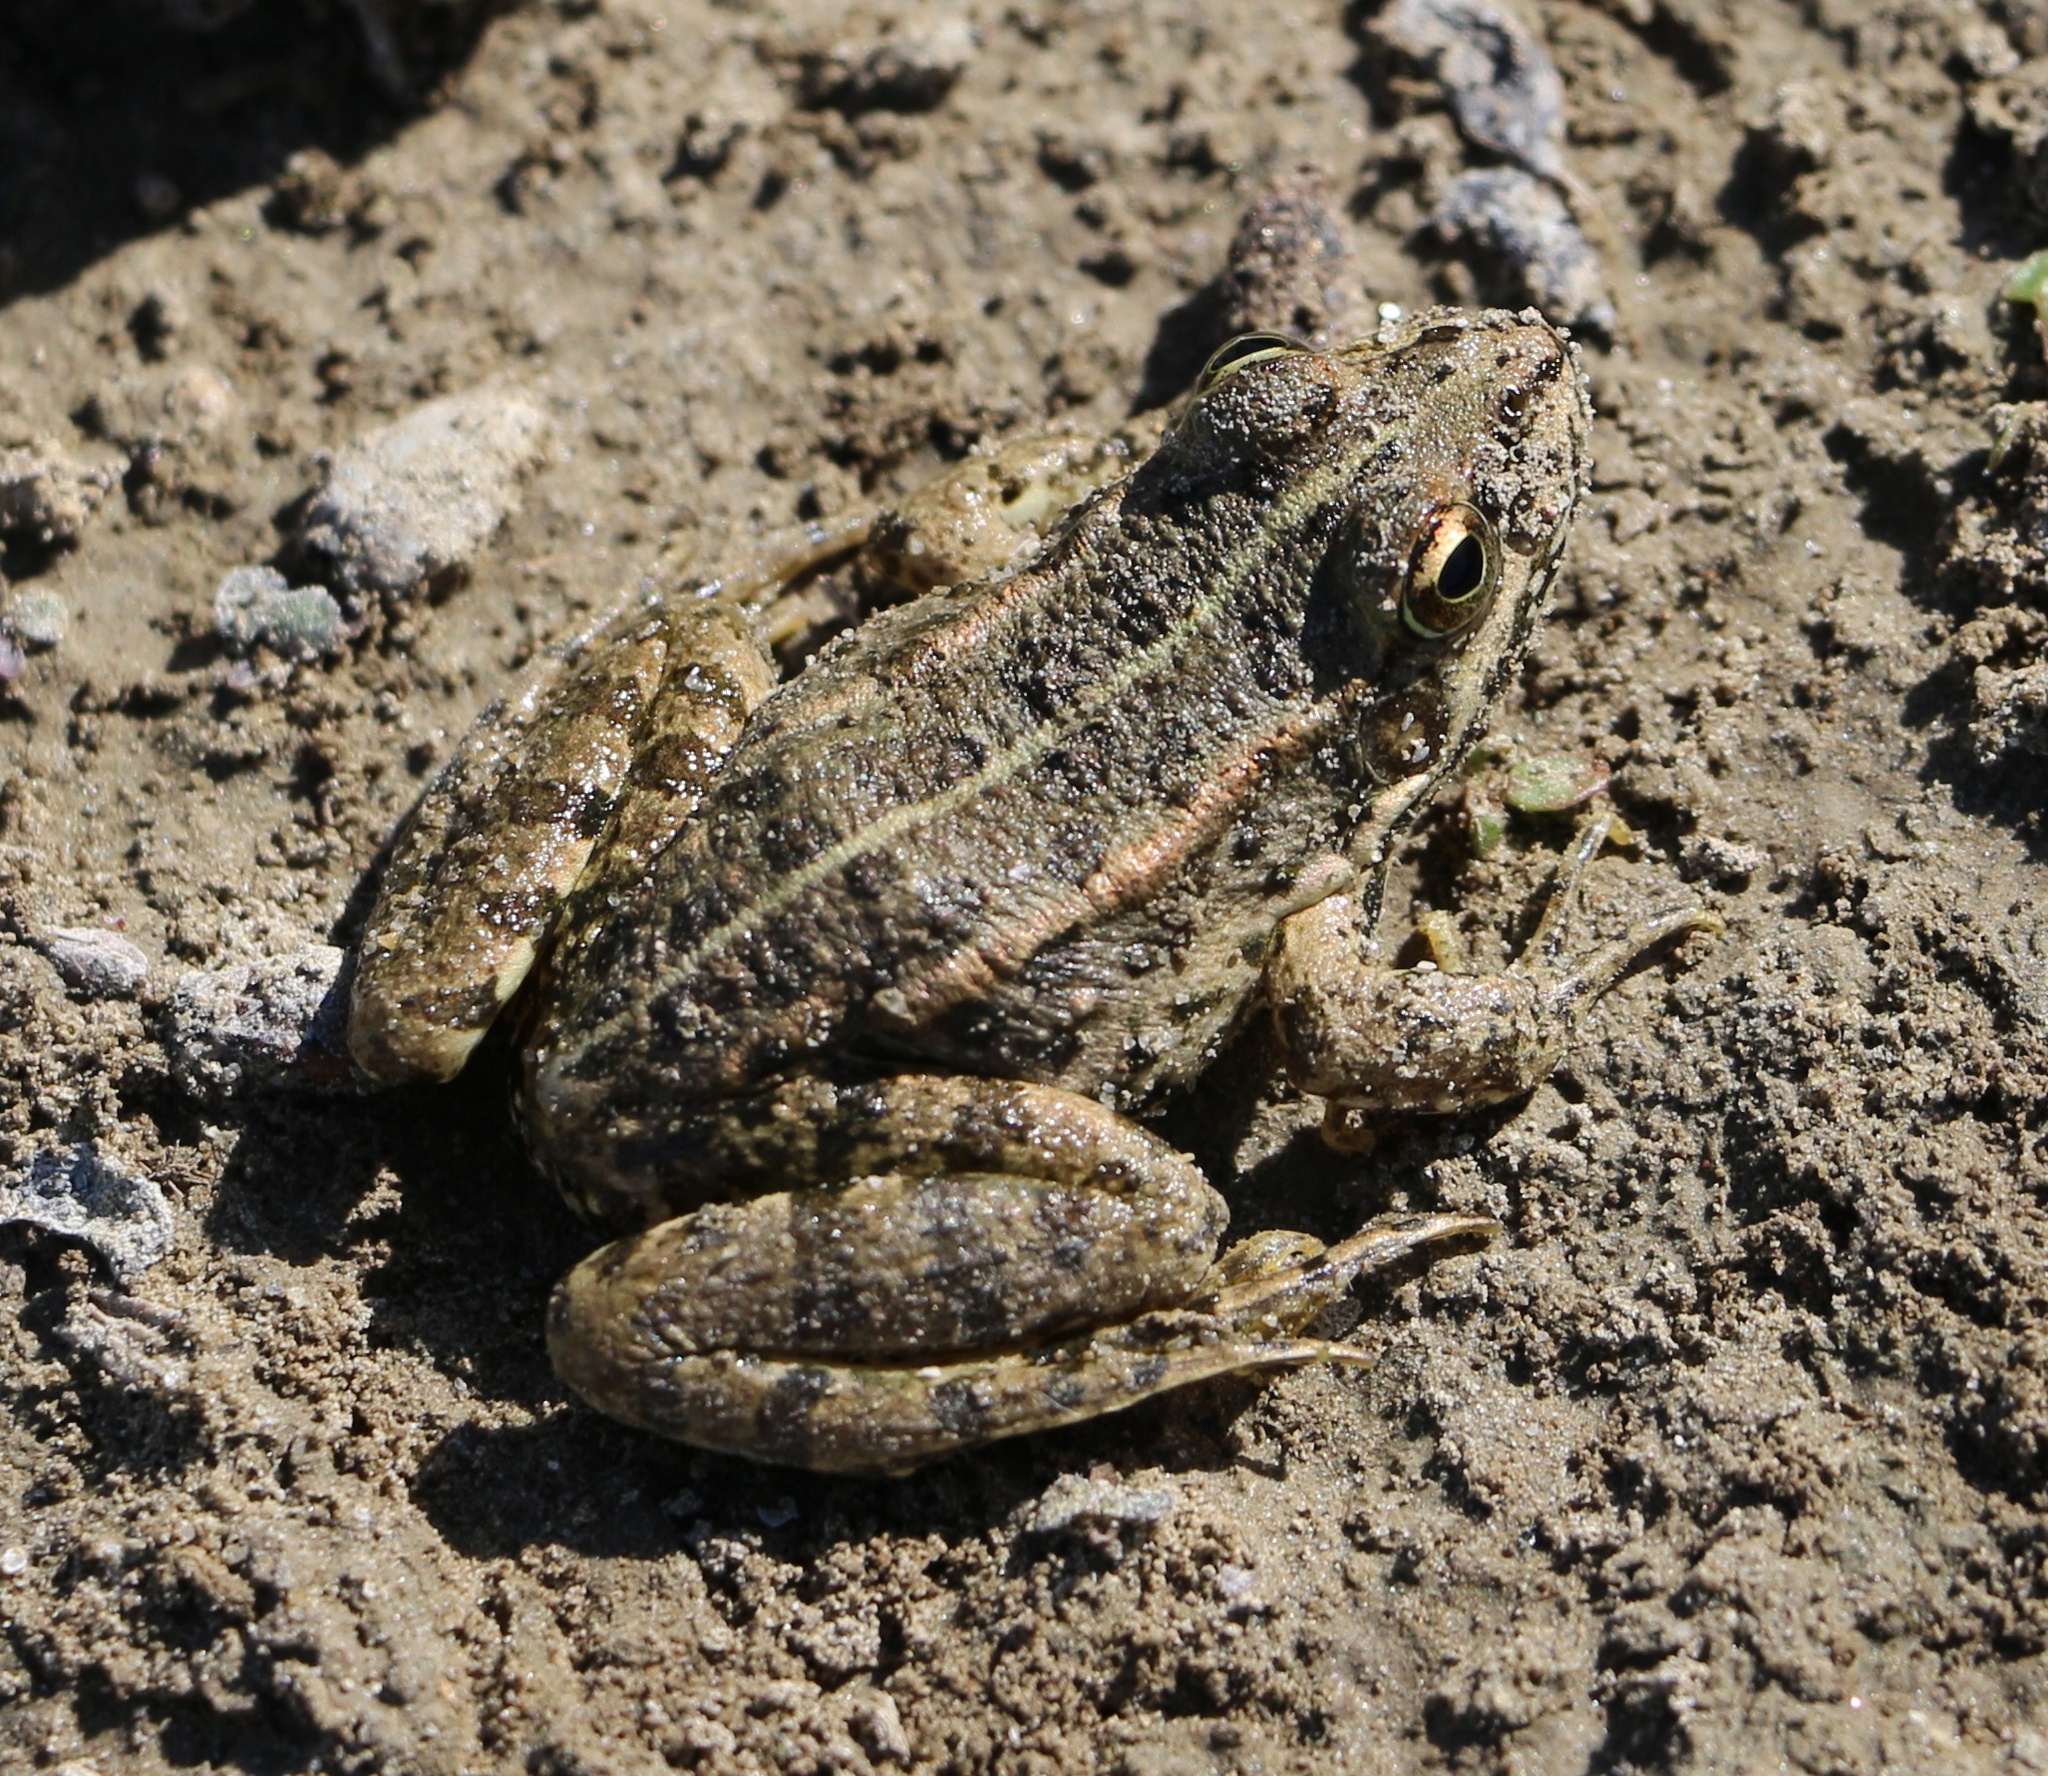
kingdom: Animalia
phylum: Chordata
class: Amphibia
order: Anura
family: Ranidae
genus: Pelophylax
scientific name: Pelophylax ridibundus
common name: Marsh frog
